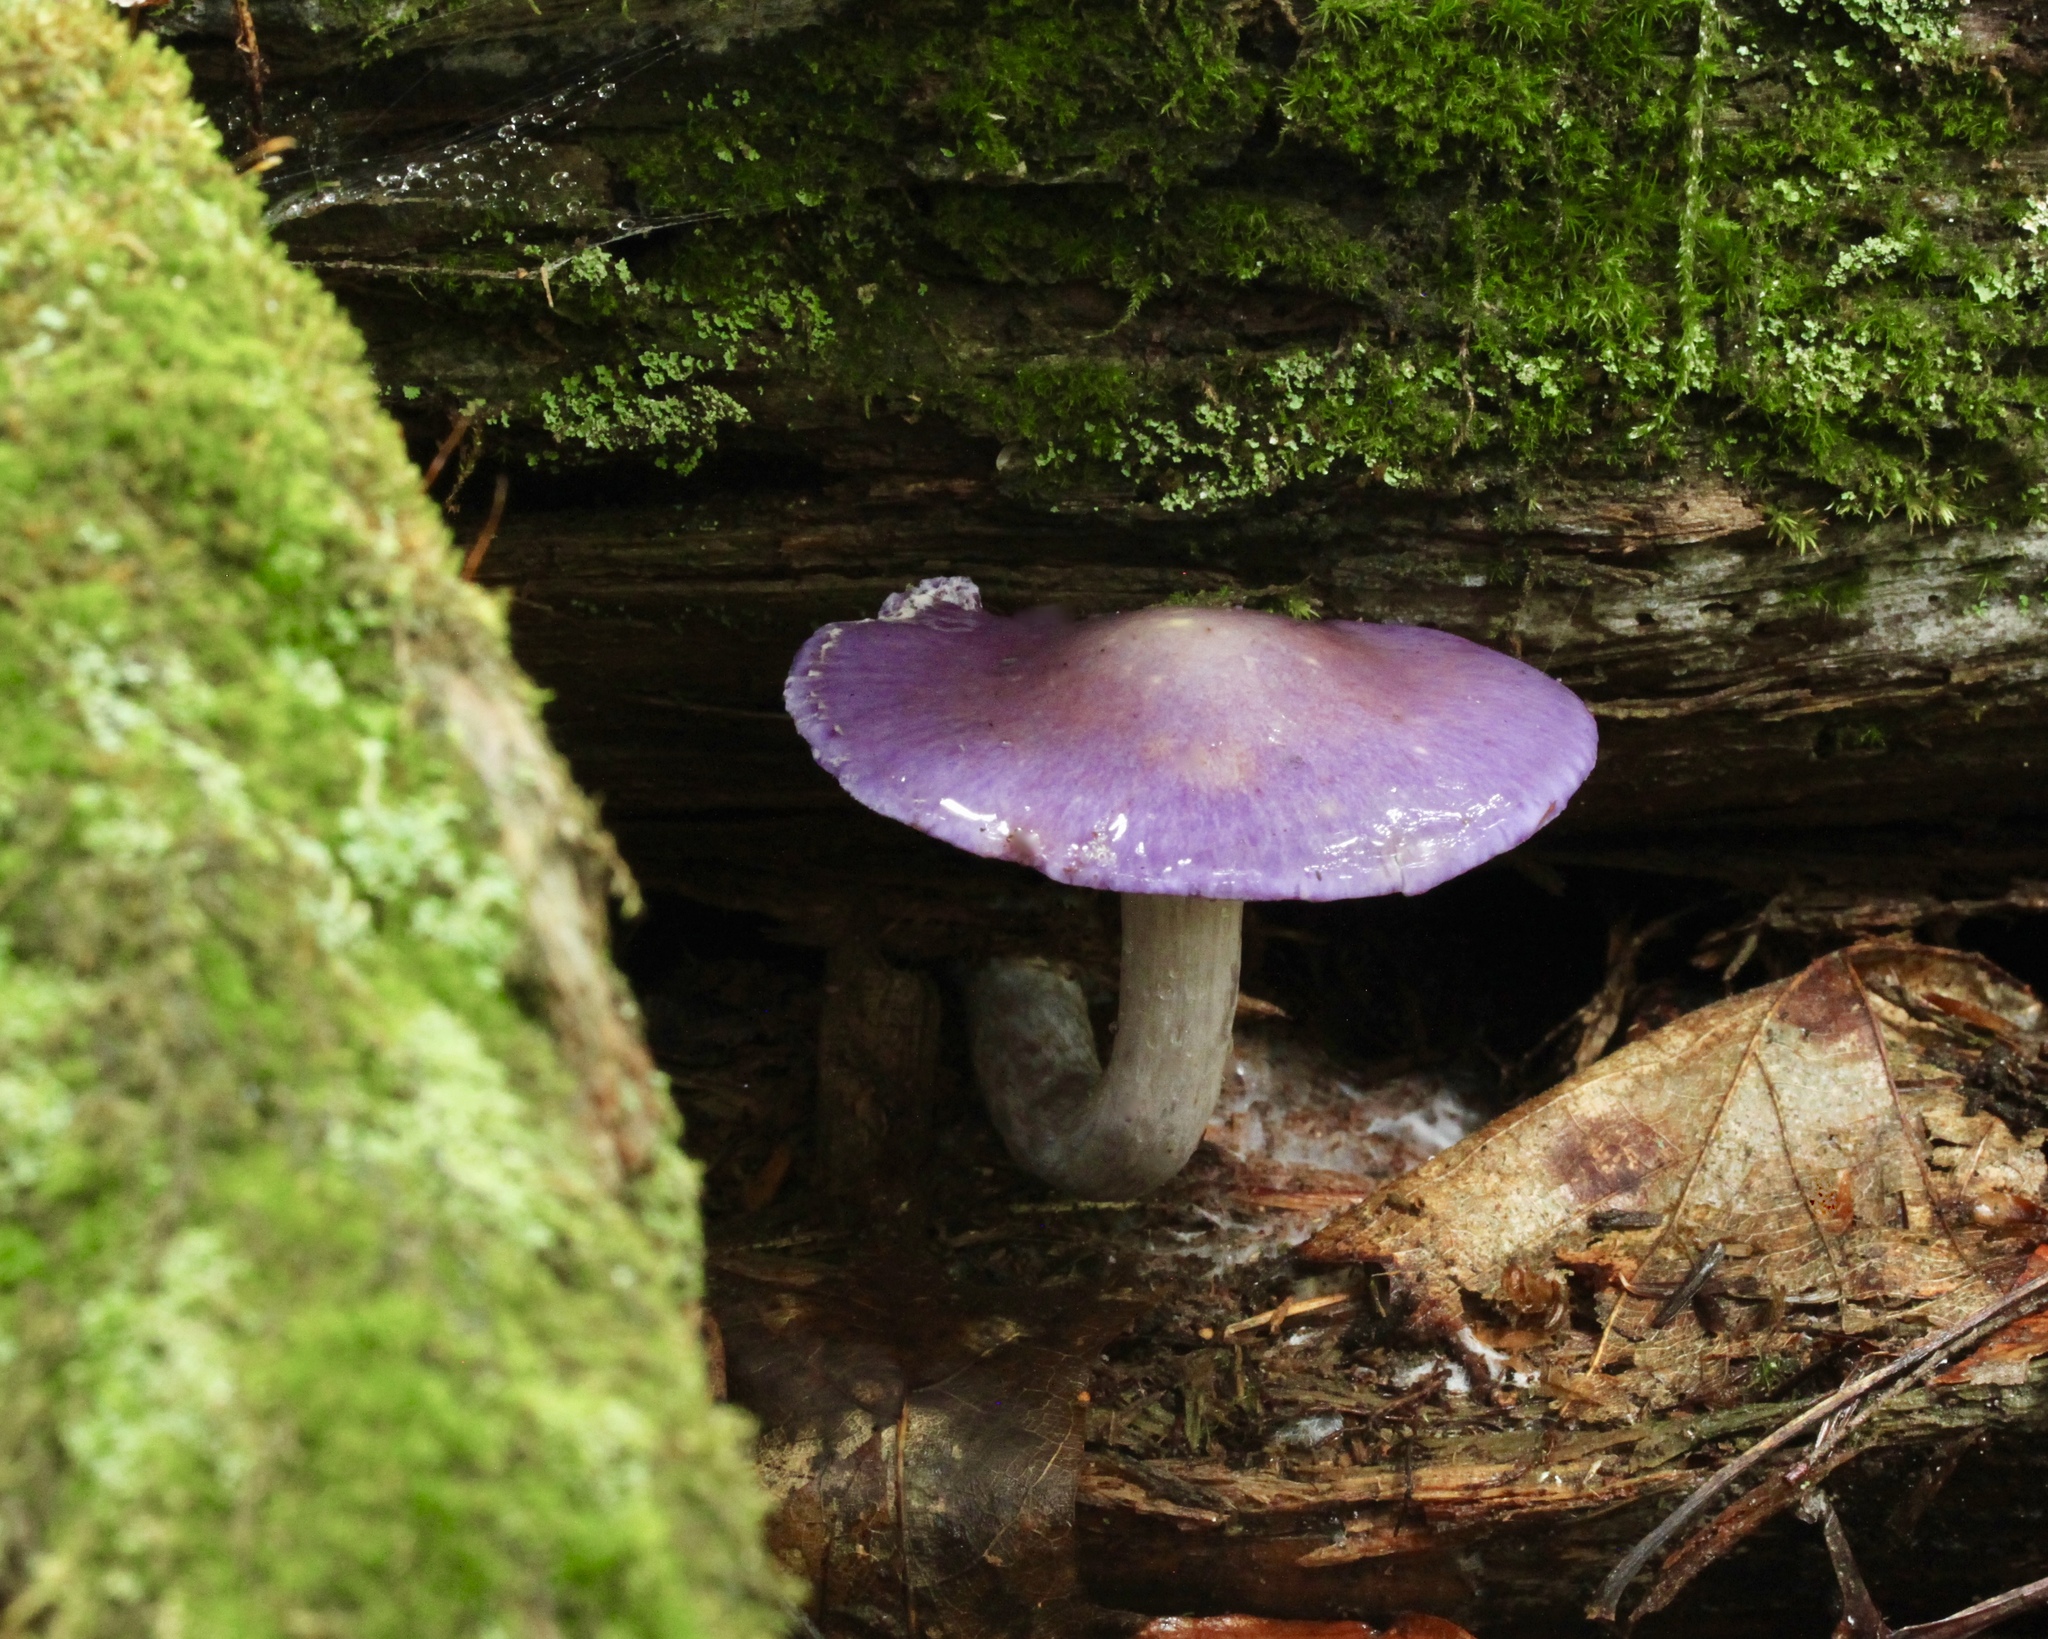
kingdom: Fungi
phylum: Basidiomycota
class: Agaricomycetes
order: Agaricales
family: Cortinariaceae
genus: Cortinarius
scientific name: Cortinarius iodes
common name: Viscid violet cort
